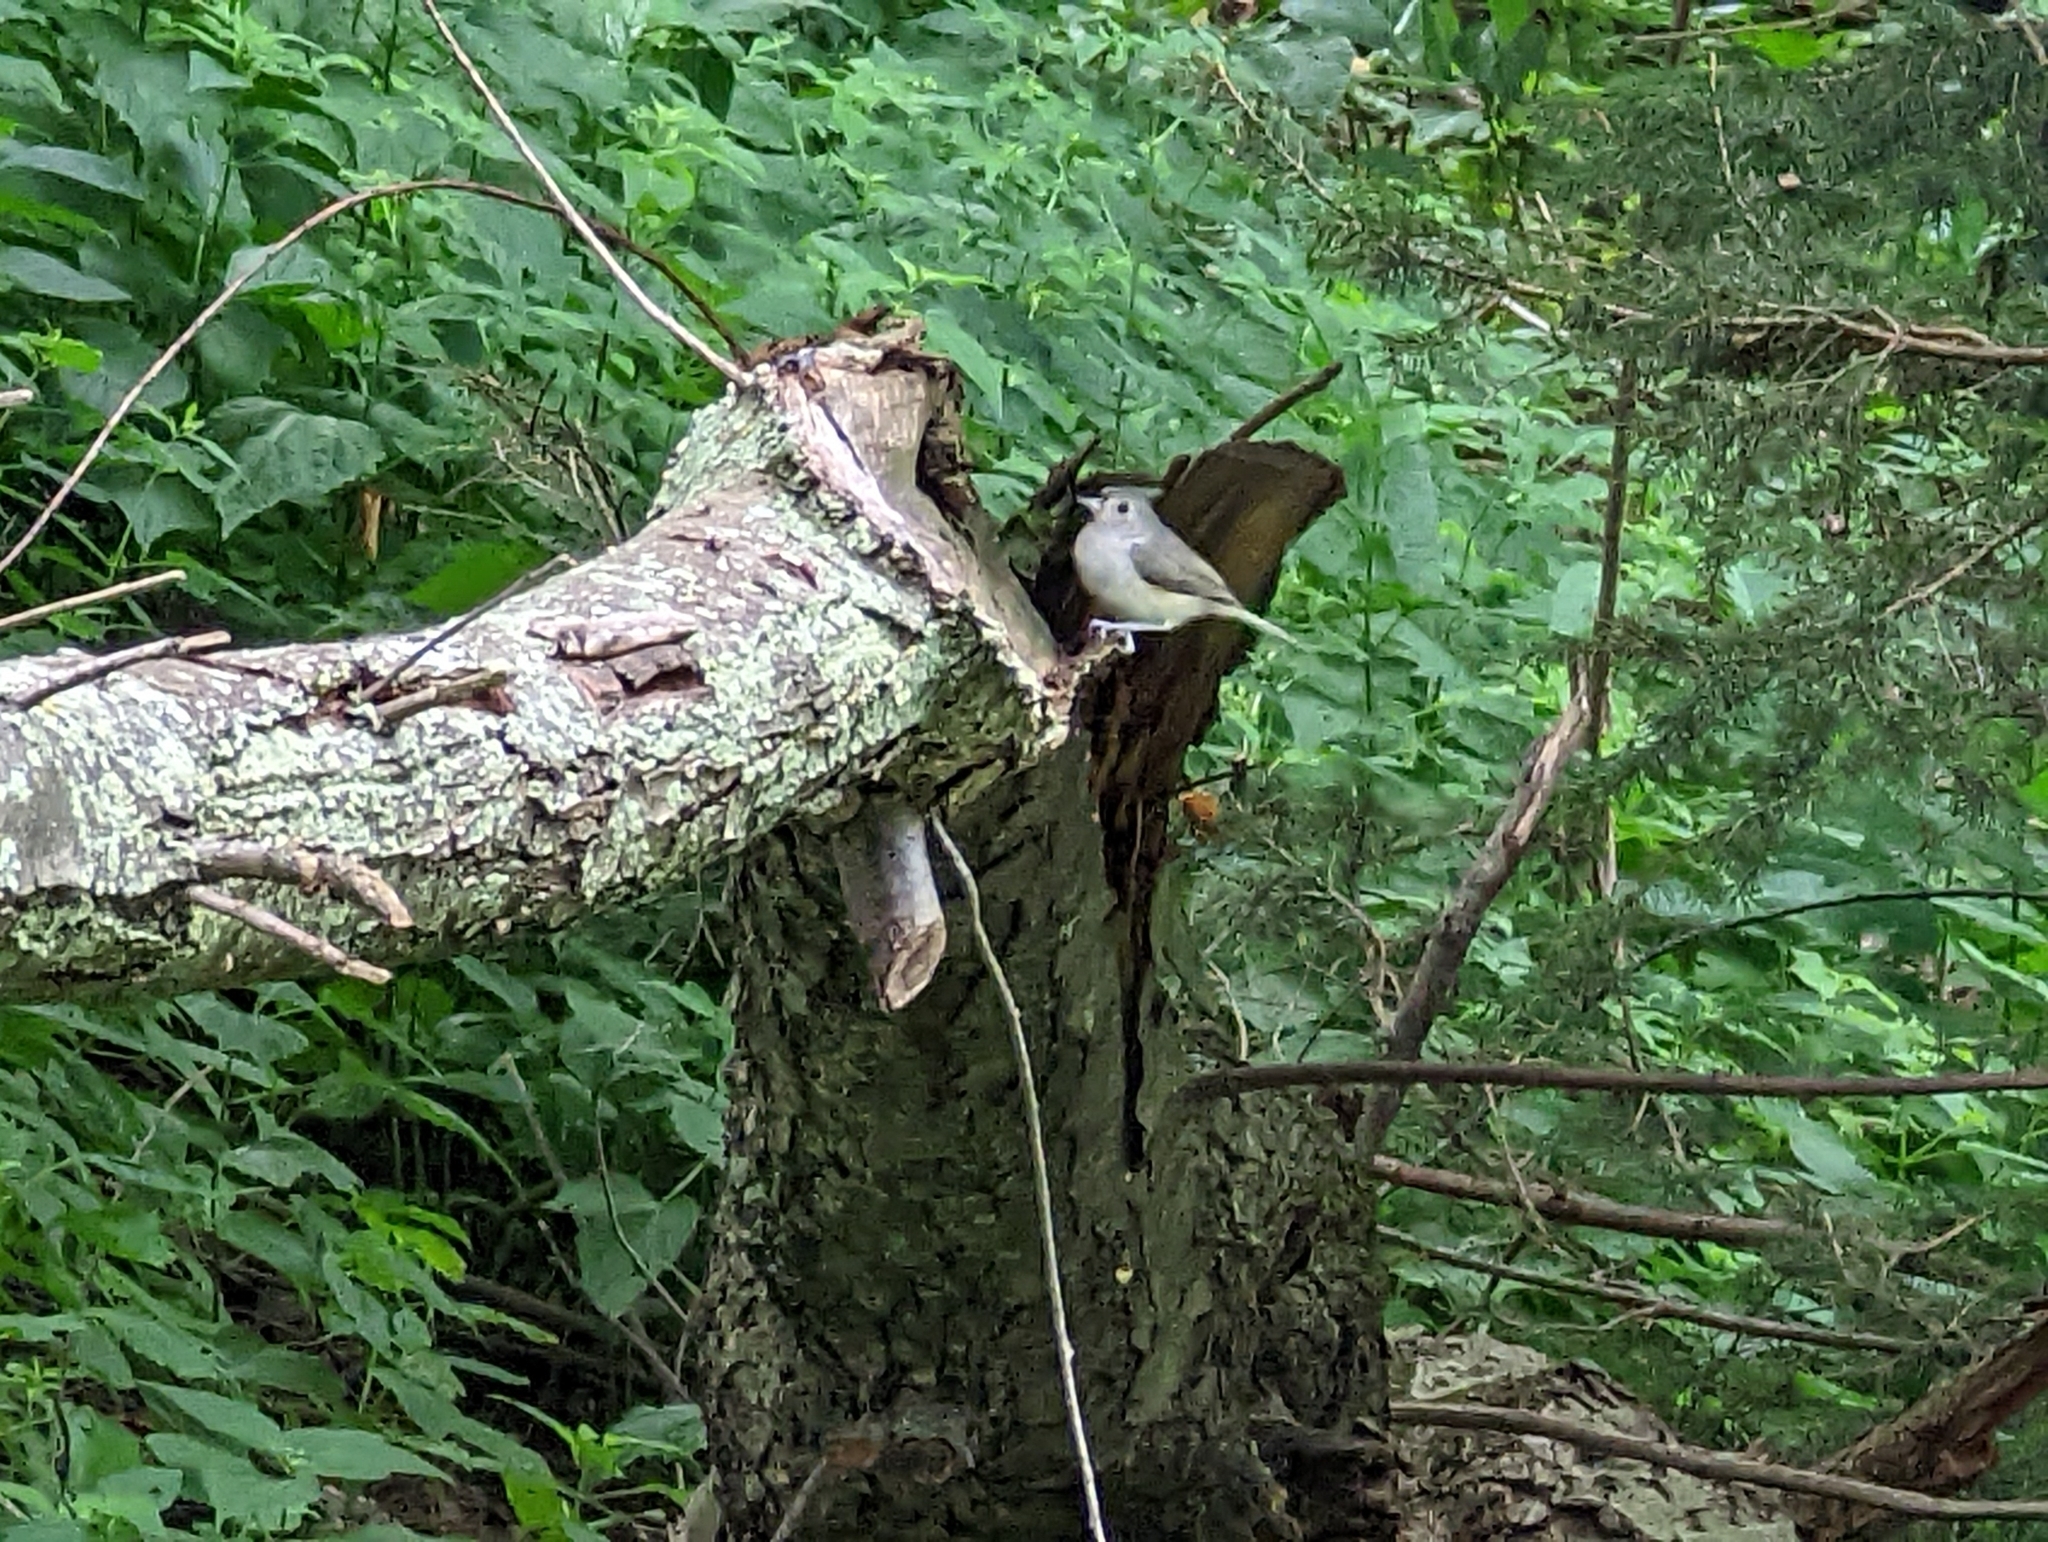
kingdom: Animalia
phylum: Chordata
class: Aves
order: Passeriformes
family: Paridae
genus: Baeolophus
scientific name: Baeolophus bicolor
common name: Tufted titmouse
